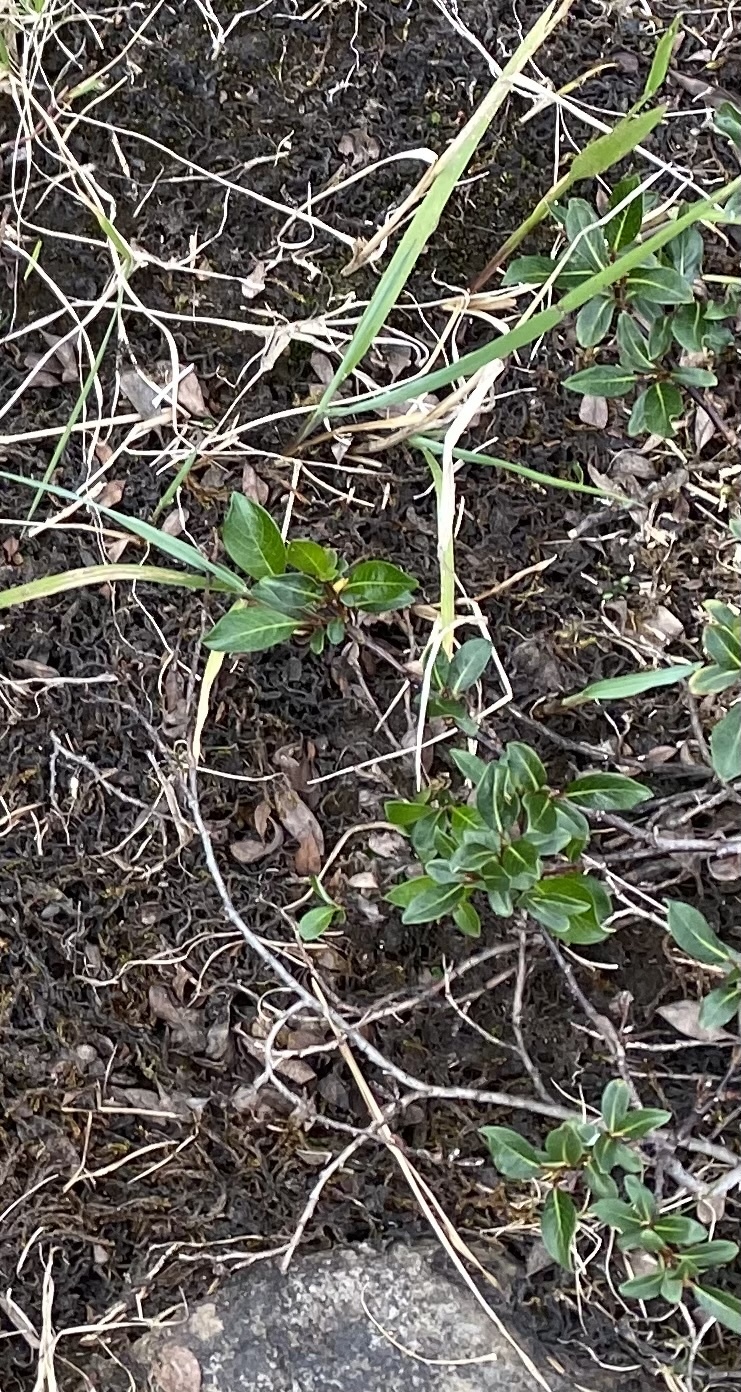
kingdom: Plantae
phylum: Tracheophyta
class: Magnoliopsida
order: Malpighiales
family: Salicaceae
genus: Salix
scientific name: Salix saxatilis
